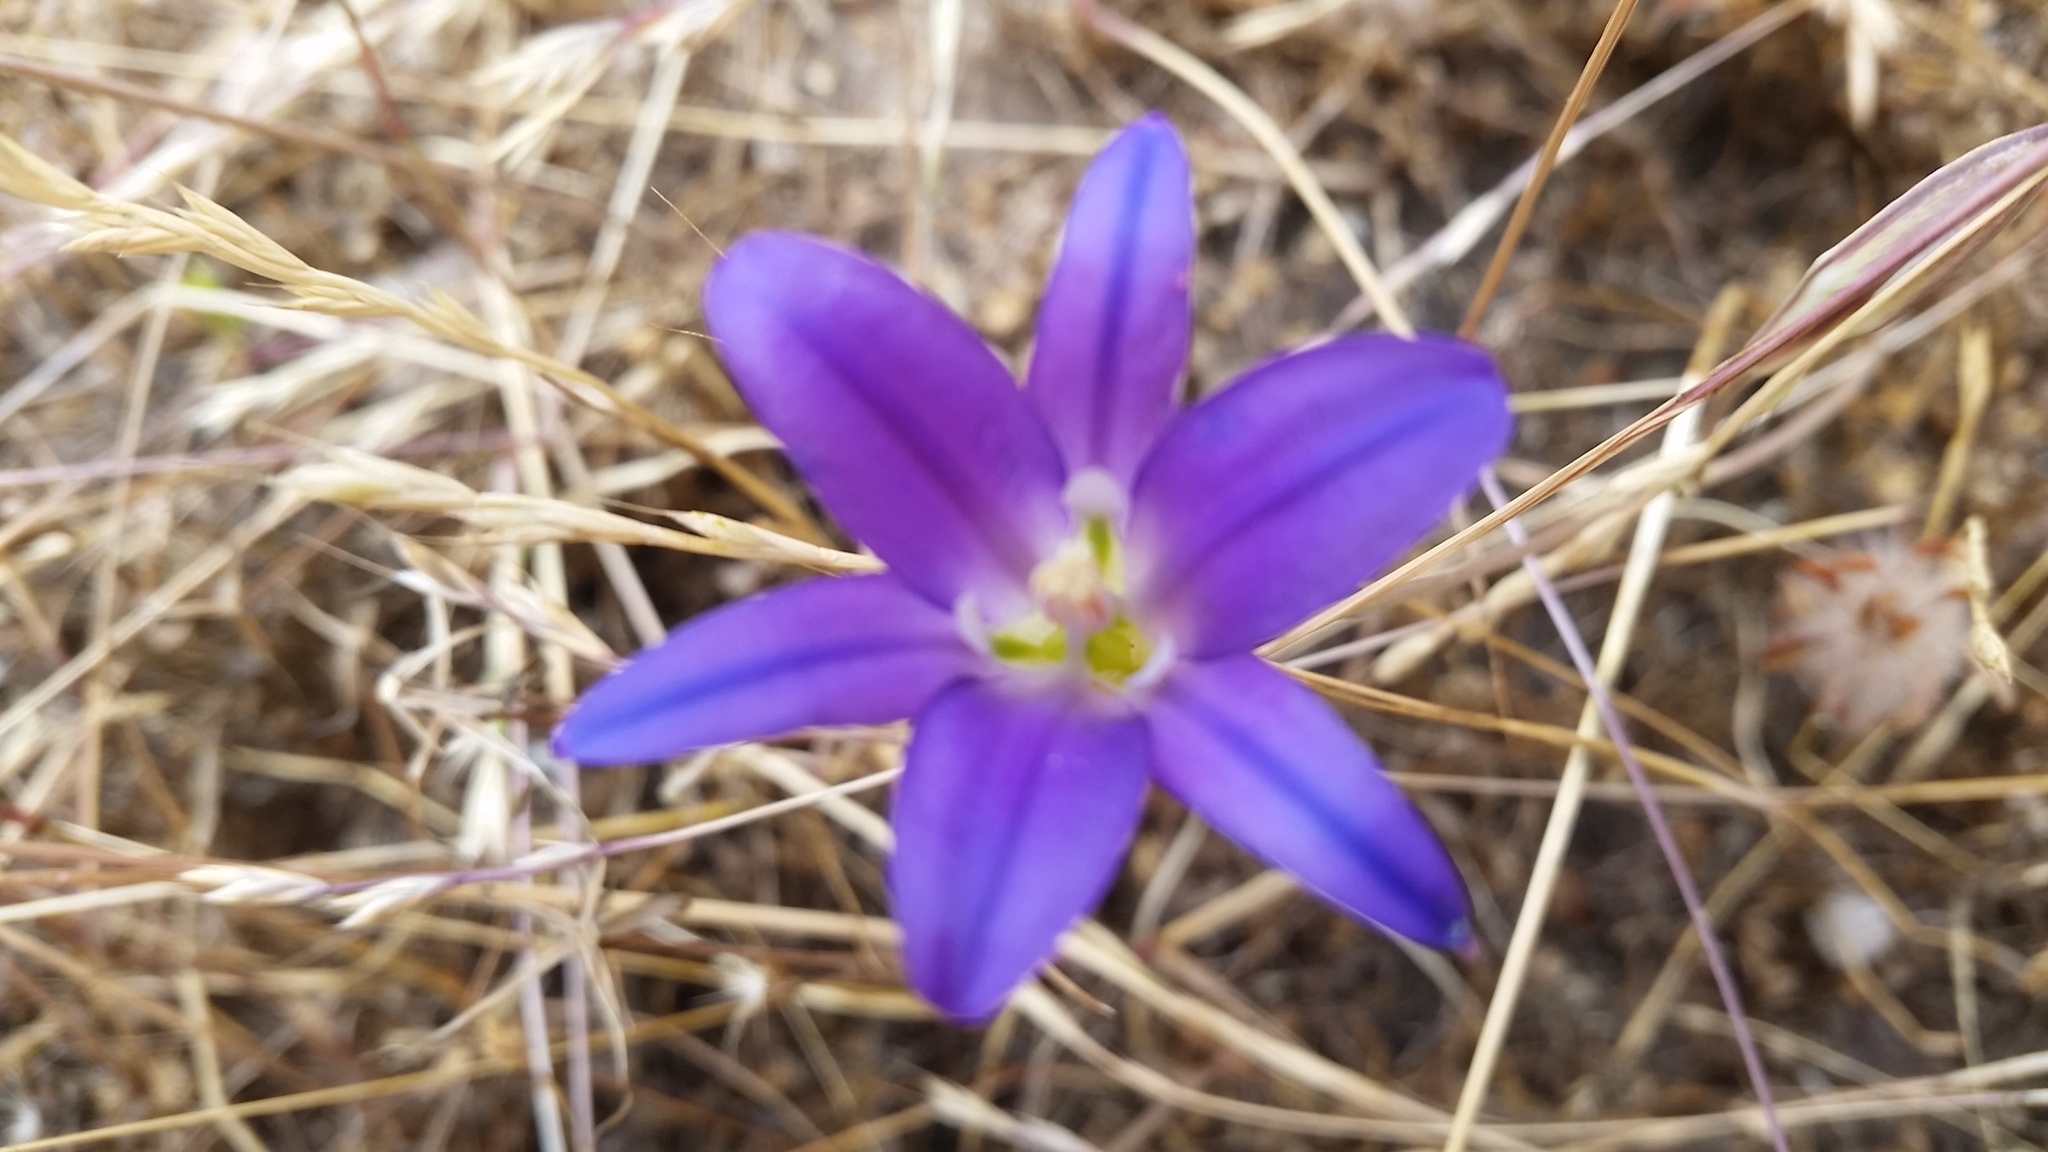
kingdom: Plantae
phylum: Tracheophyta
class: Liliopsida
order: Asparagales
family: Asparagaceae
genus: Brodiaea
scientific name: Brodiaea elegans
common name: Elegant cluster-lily
